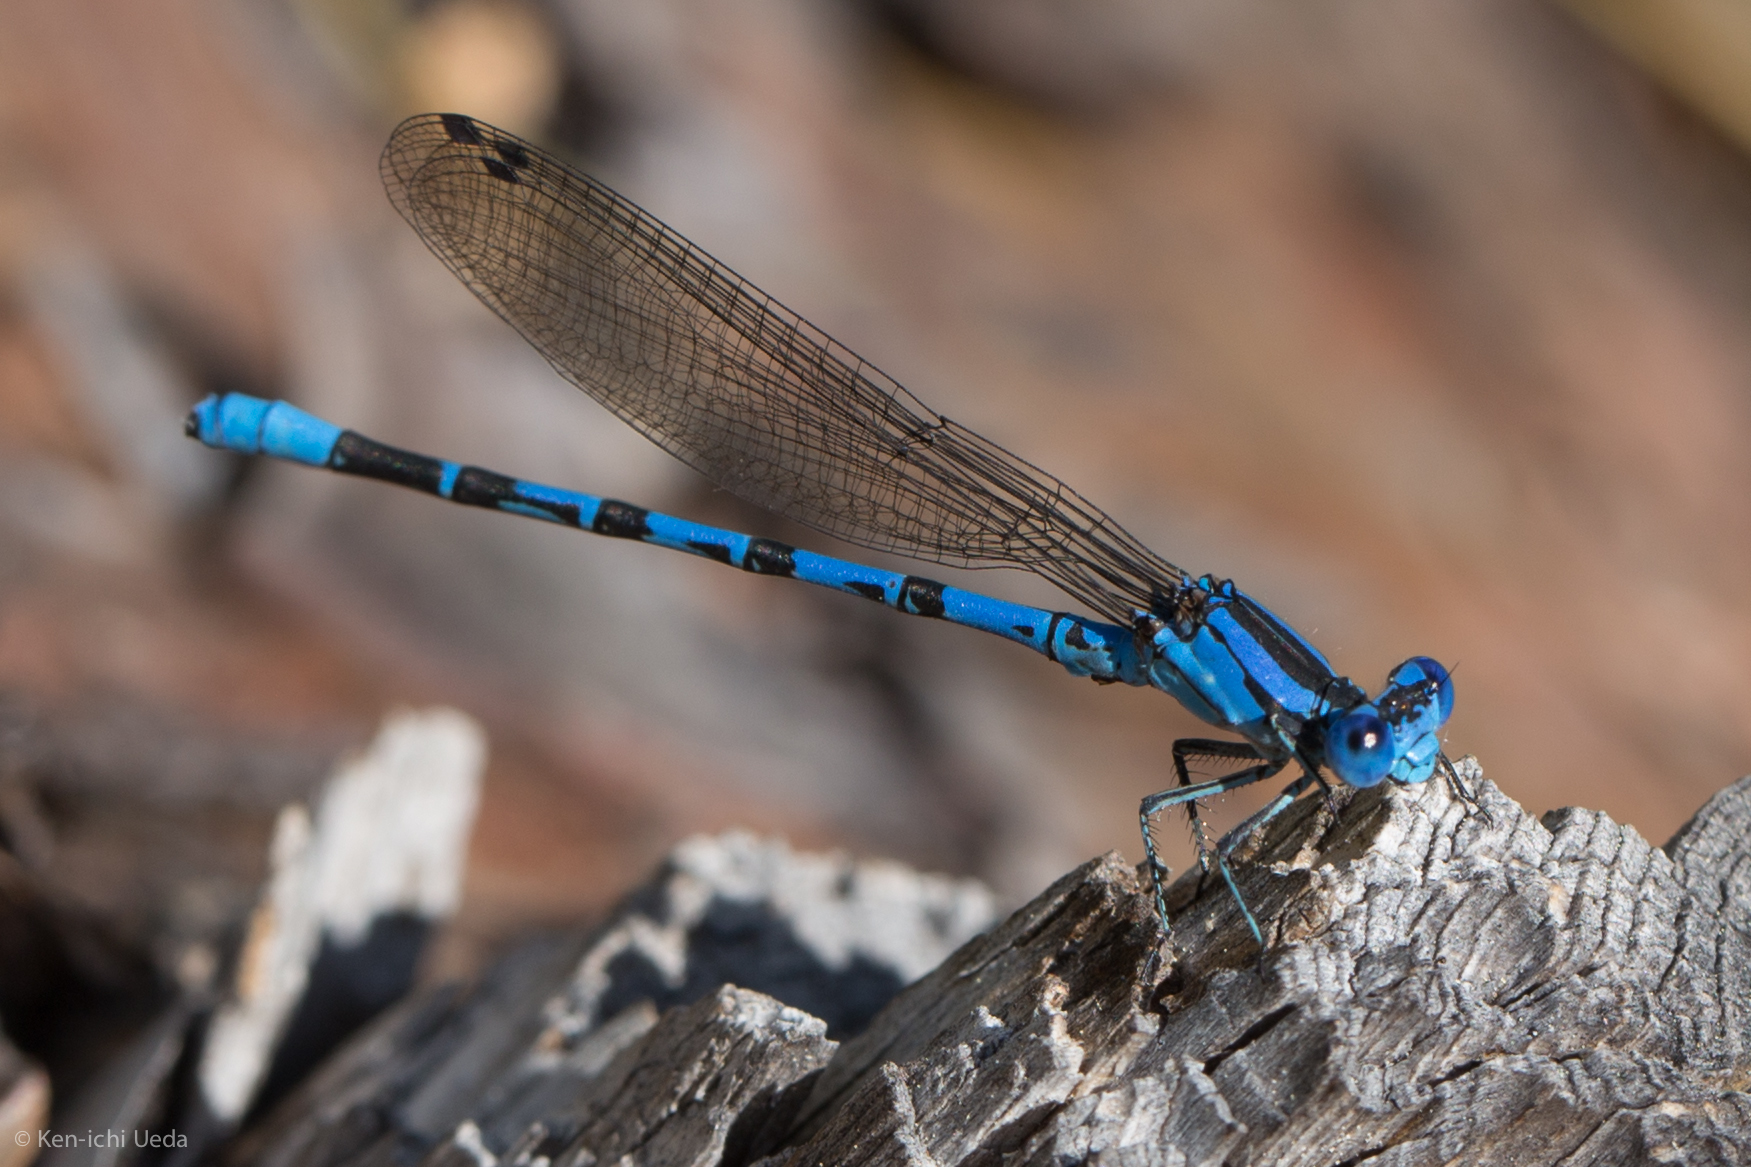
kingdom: Animalia
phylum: Arthropoda
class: Insecta
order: Odonata
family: Coenagrionidae
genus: Argia
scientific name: Argia vivida
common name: Vivid dancer
